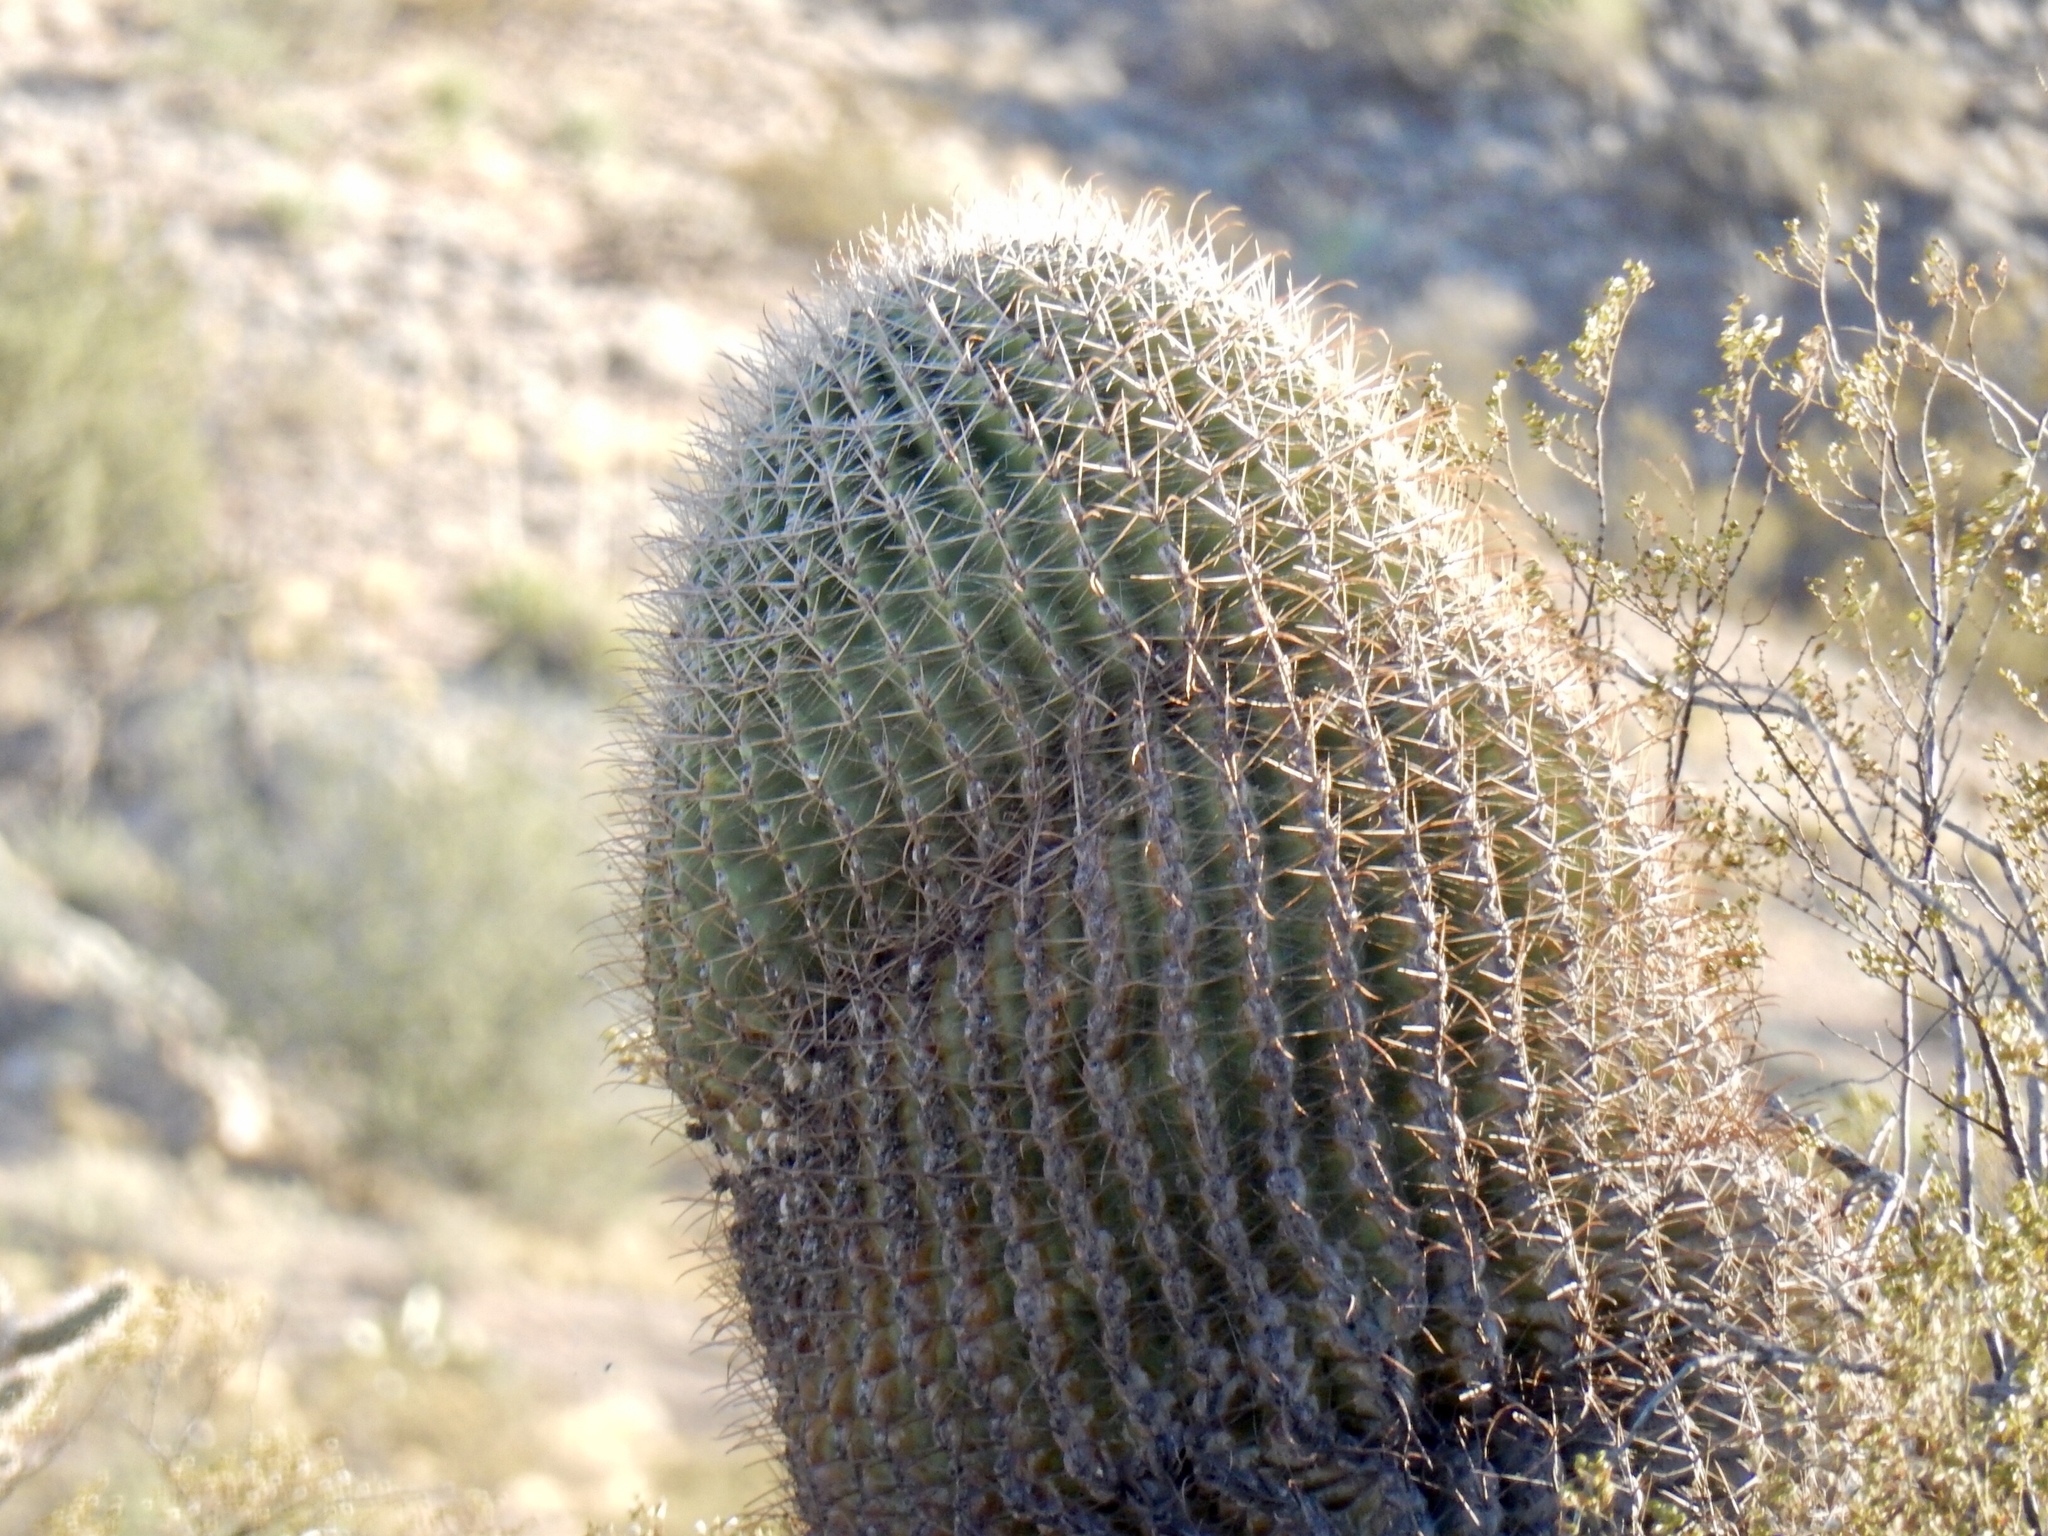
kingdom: Plantae
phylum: Tracheophyta
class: Magnoliopsida
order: Caryophyllales
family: Cactaceae
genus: Ferocactus
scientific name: Ferocactus wislizeni
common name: Candy barrel cactus
